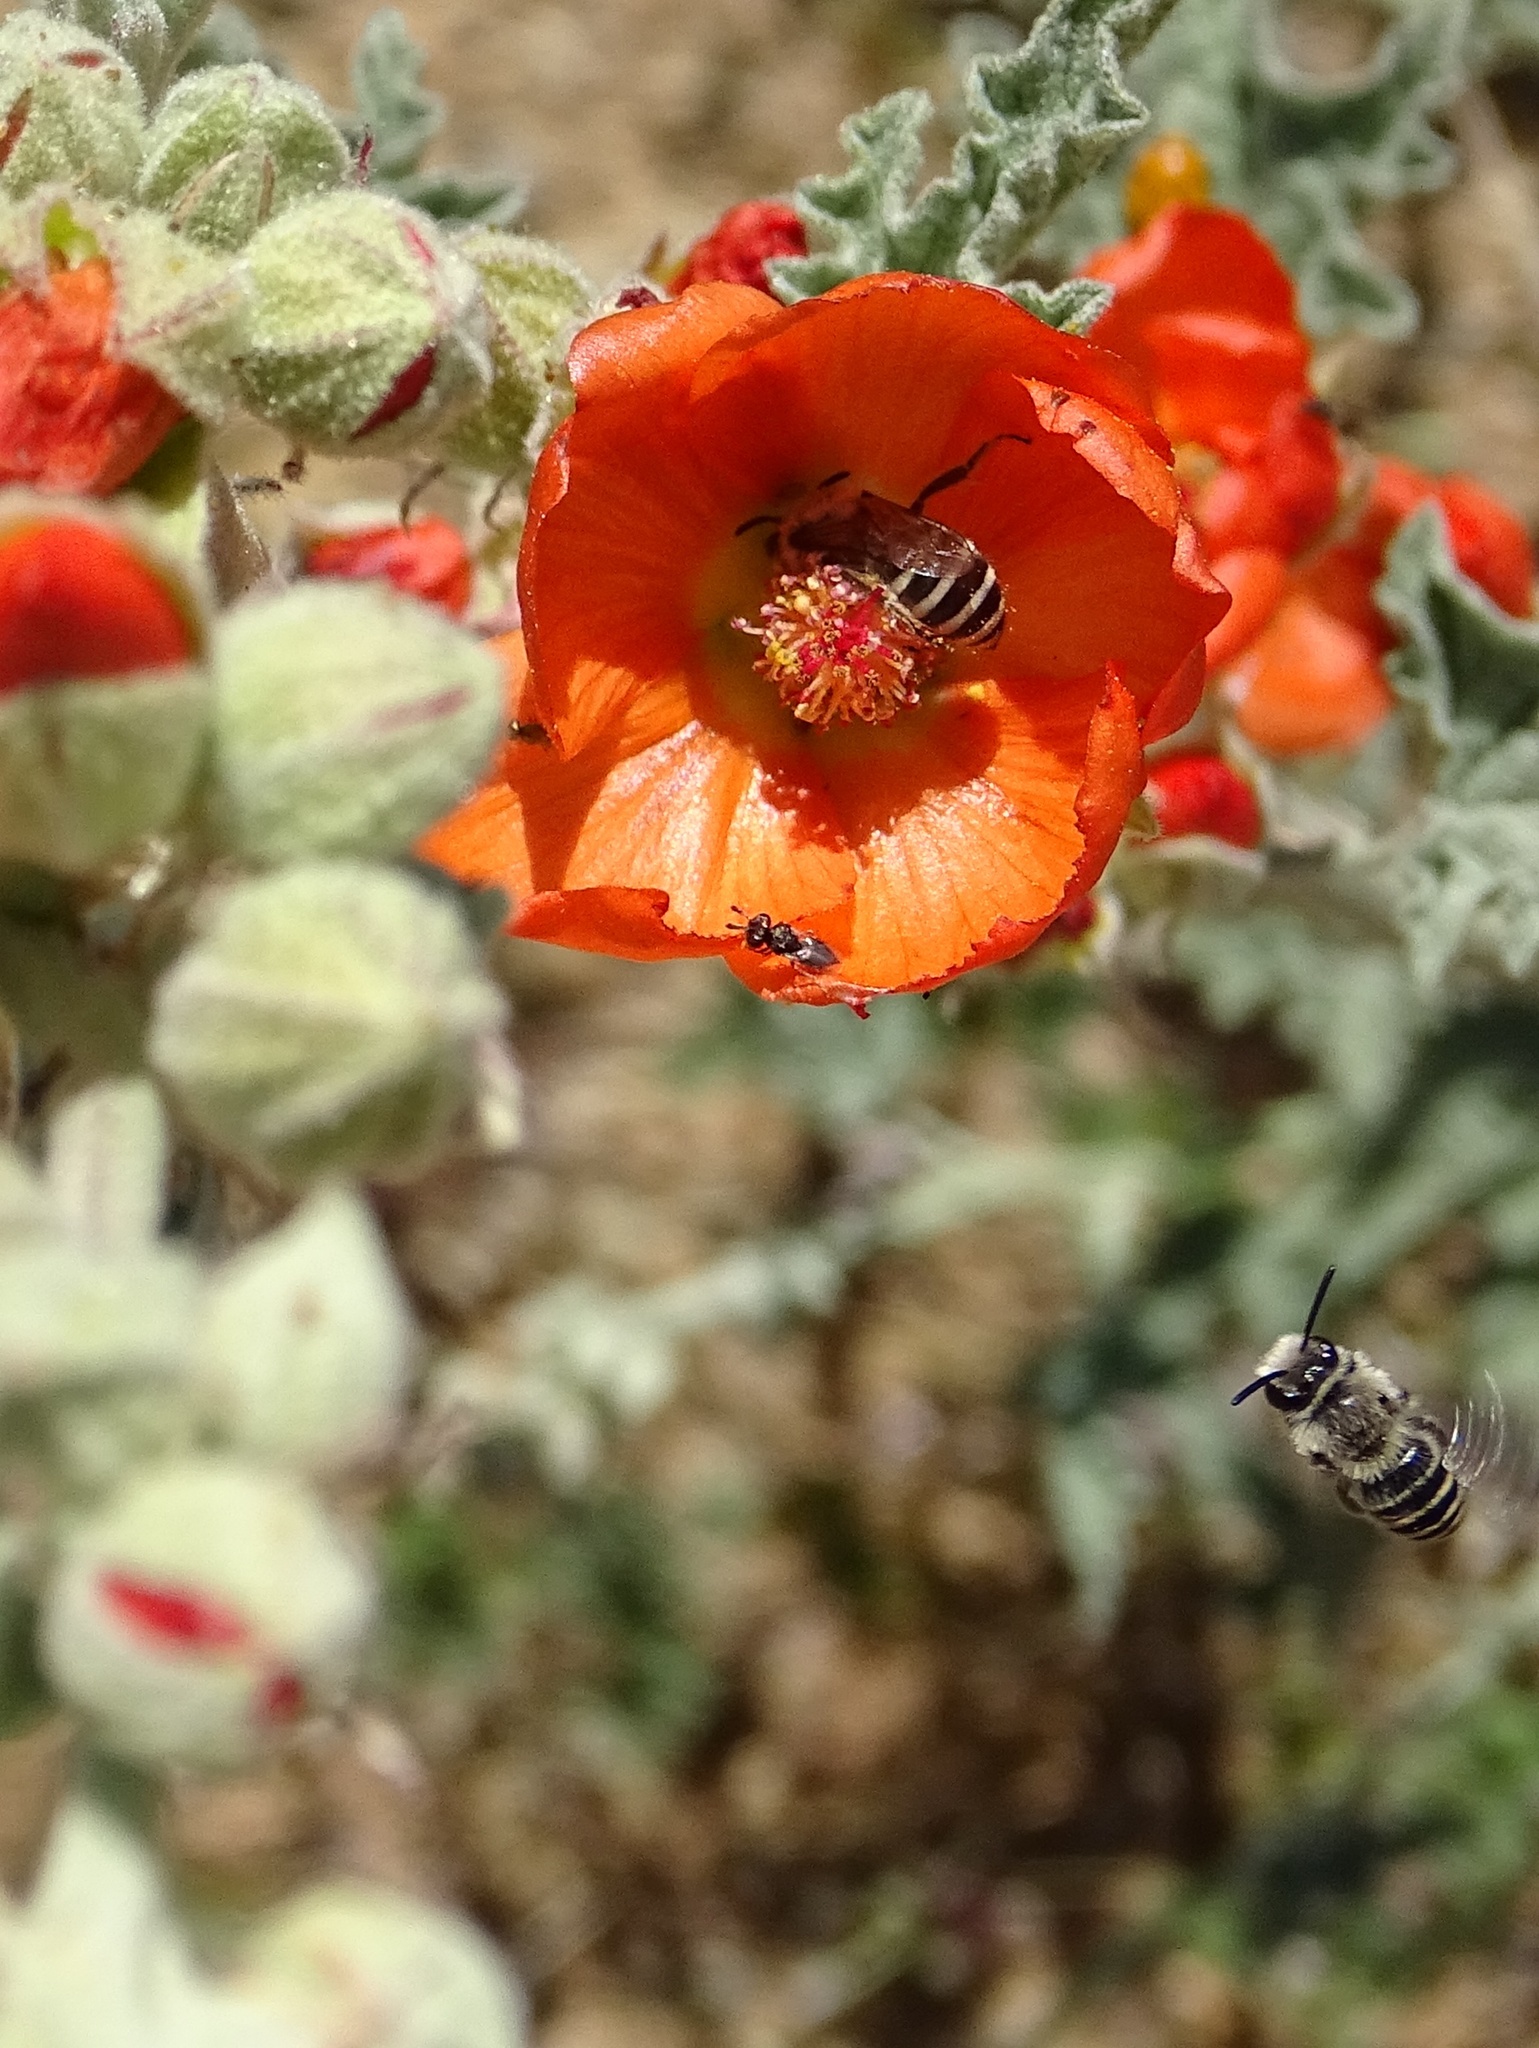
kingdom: Animalia
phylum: Arthropoda
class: Insecta
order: Hymenoptera
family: Colletidae
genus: Colletes
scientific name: Colletes
